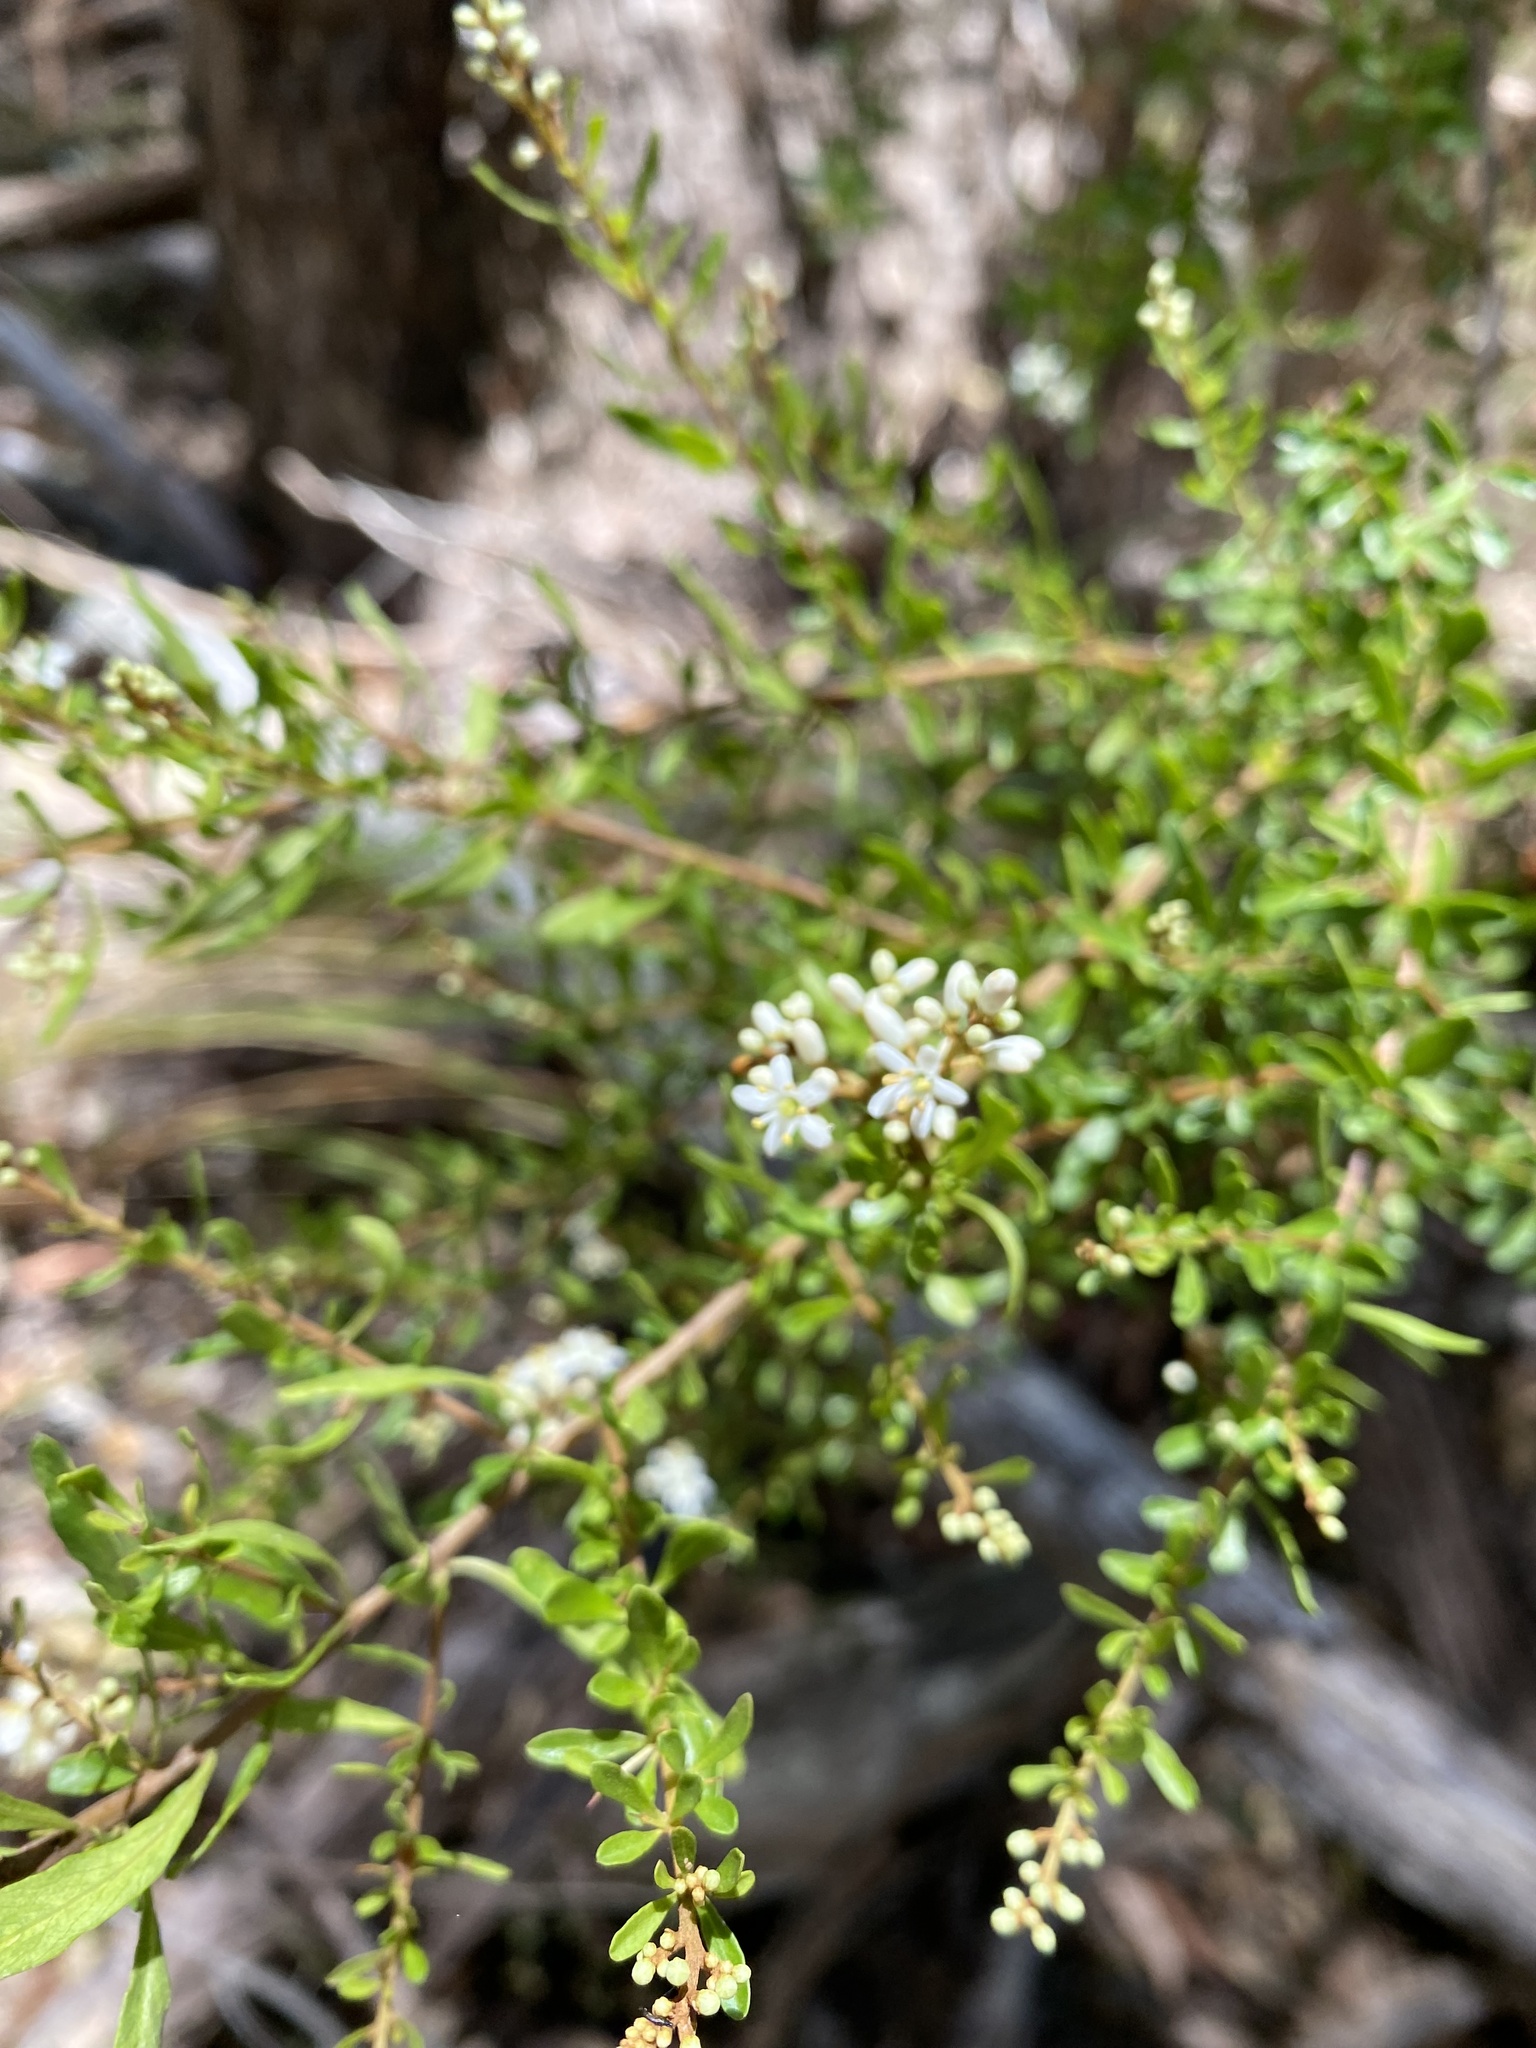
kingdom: Plantae
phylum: Tracheophyta
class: Magnoliopsida
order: Apiales
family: Pittosporaceae
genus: Bursaria
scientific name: Bursaria spinosa
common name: Australian blackthorn
